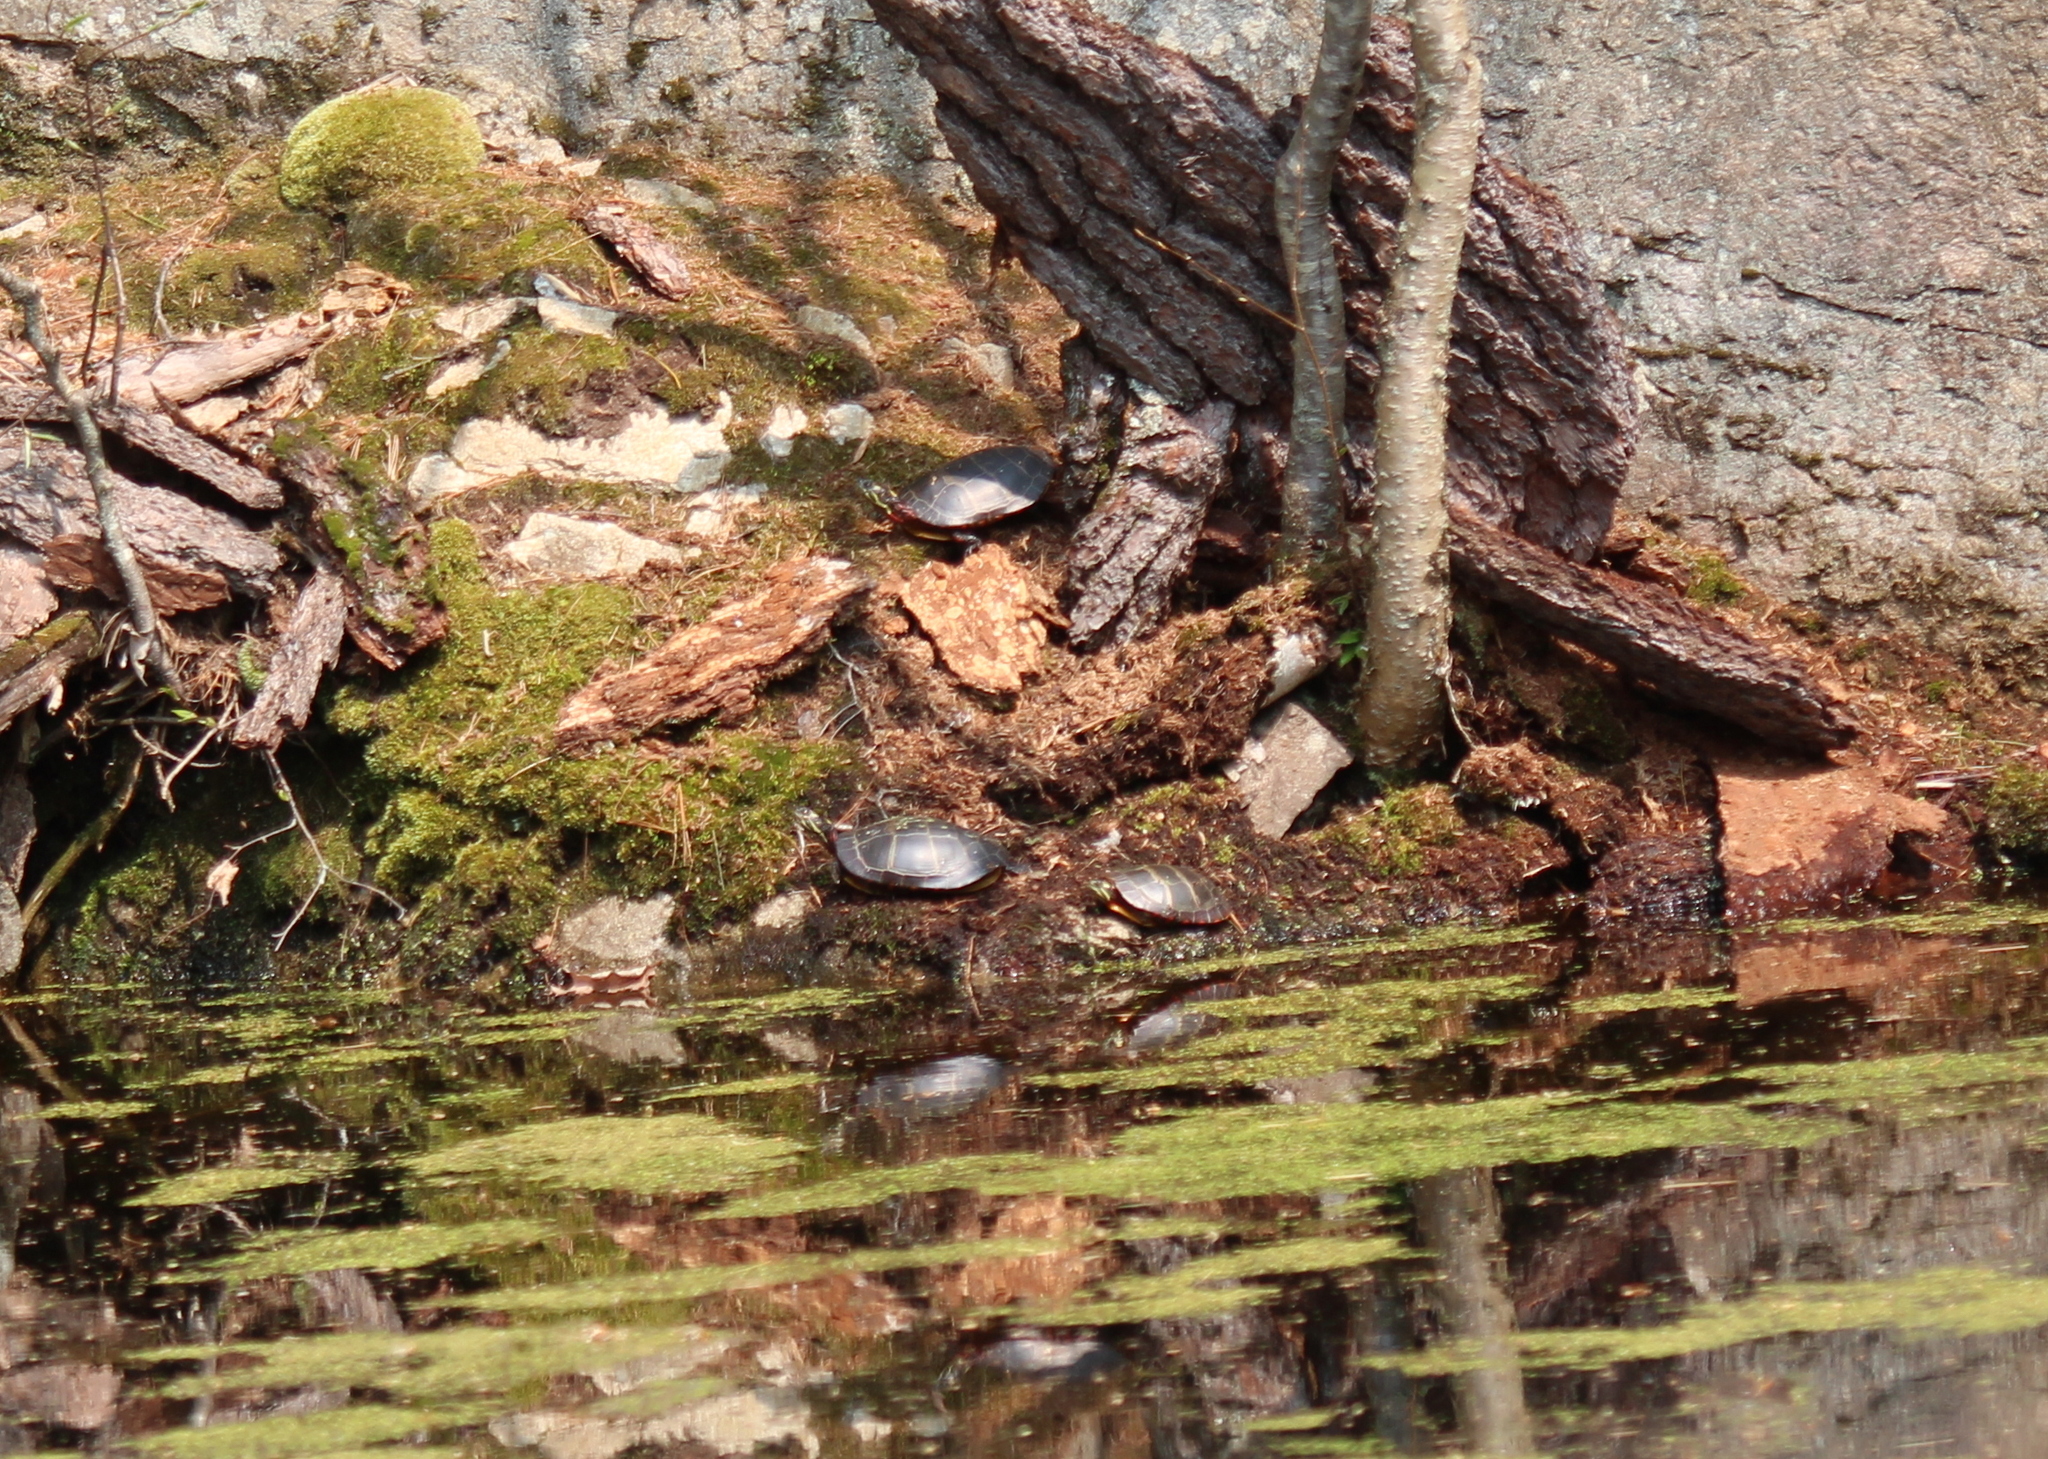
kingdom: Animalia
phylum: Chordata
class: Testudines
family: Emydidae
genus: Chrysemys
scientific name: Chrysemys picta
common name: Painted turtle
